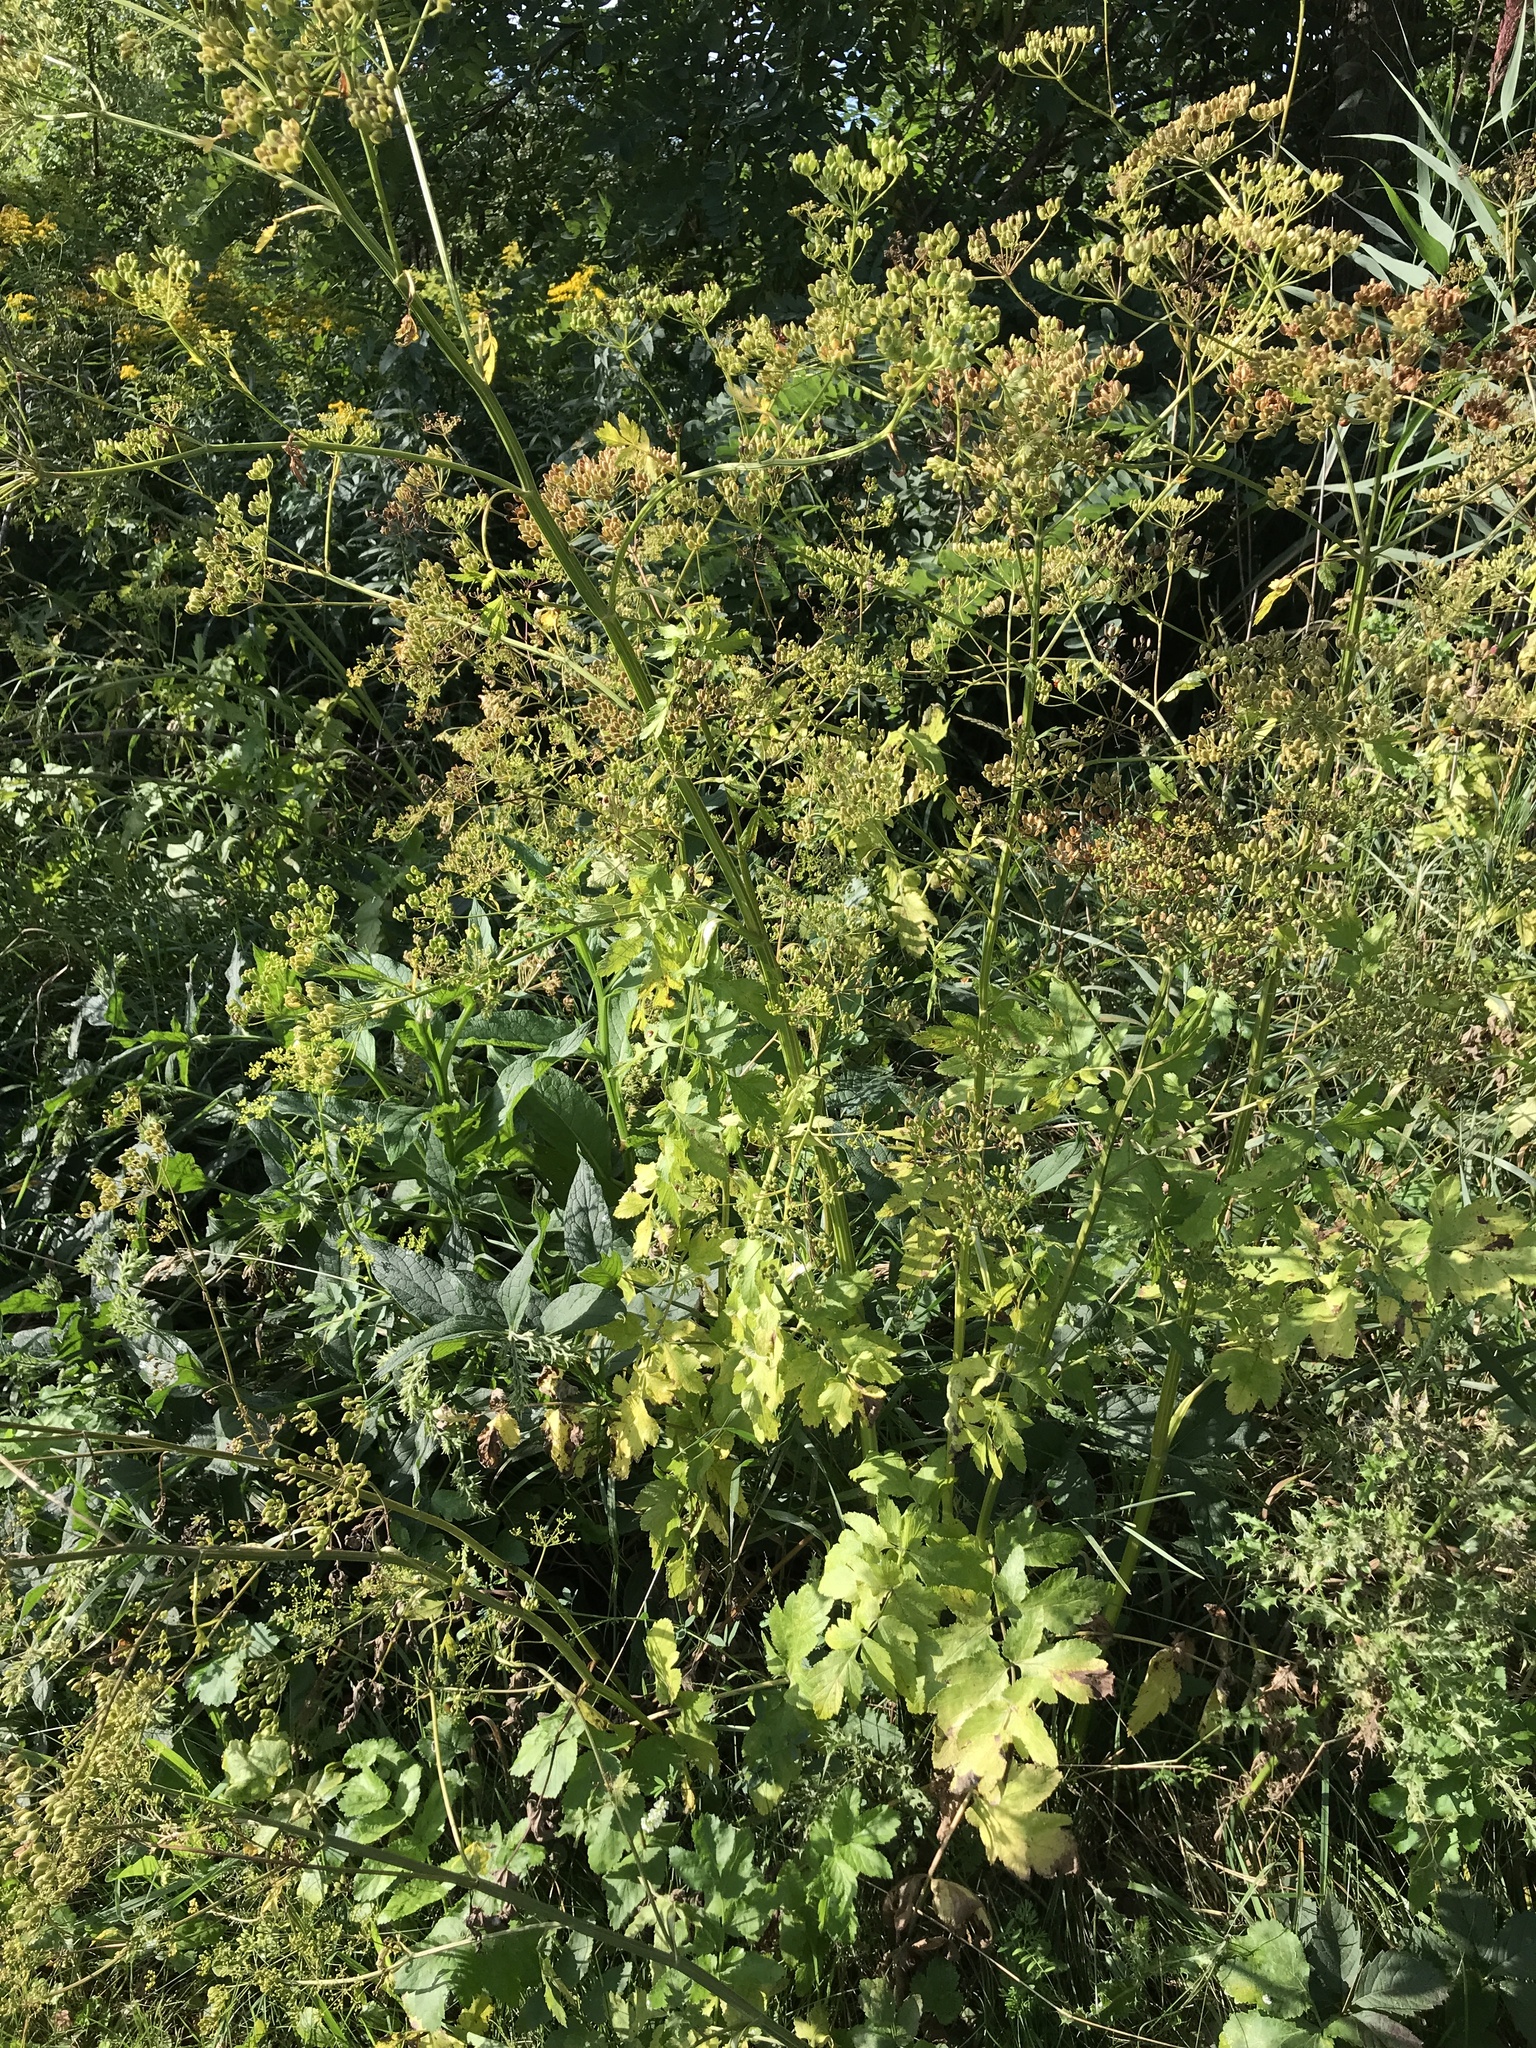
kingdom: Plantae
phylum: Tracheophyta
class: Magnoliopsida
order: Apiales
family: Apiaceae
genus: Pastinaca
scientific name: Pastinaca sativa
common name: Wild parsnip
